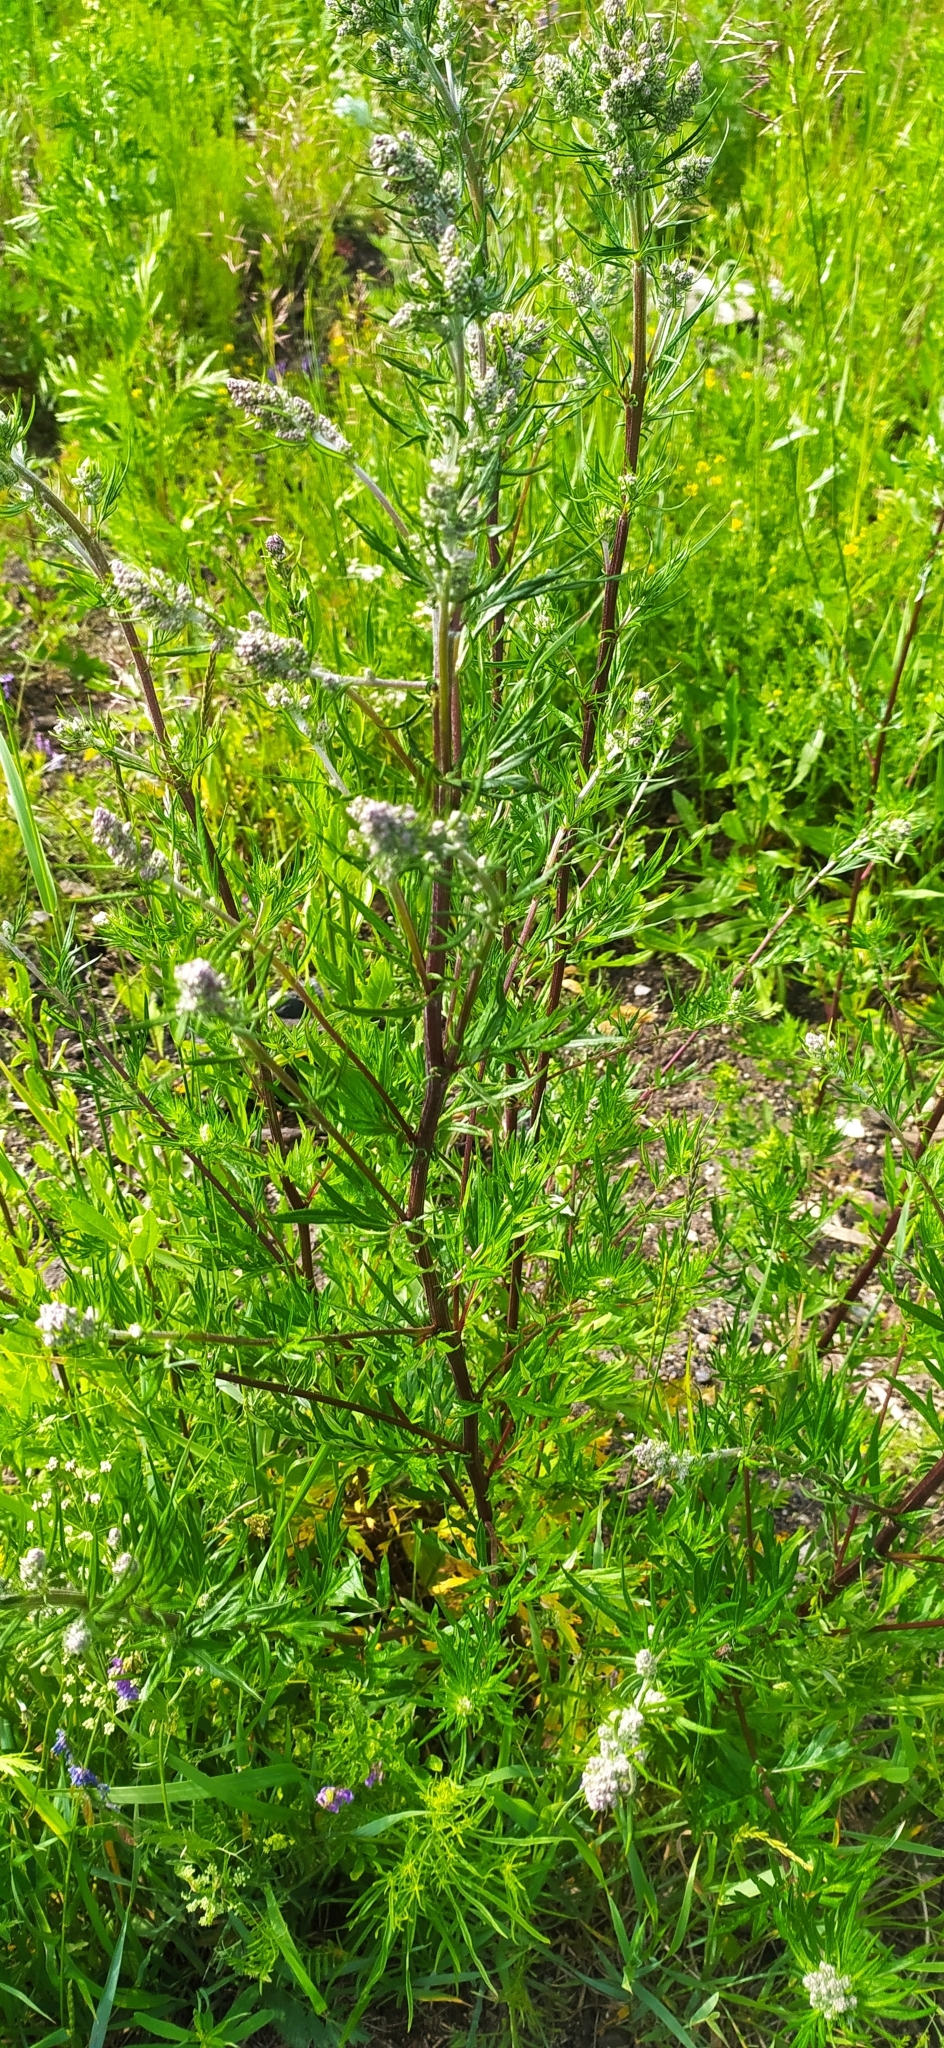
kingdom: Plantae
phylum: Tracheophyta
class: Magnoliopsida
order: Asterales
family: Asteraceae
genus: Artemisia
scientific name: Artemisia vulgaris
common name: Mugwort
